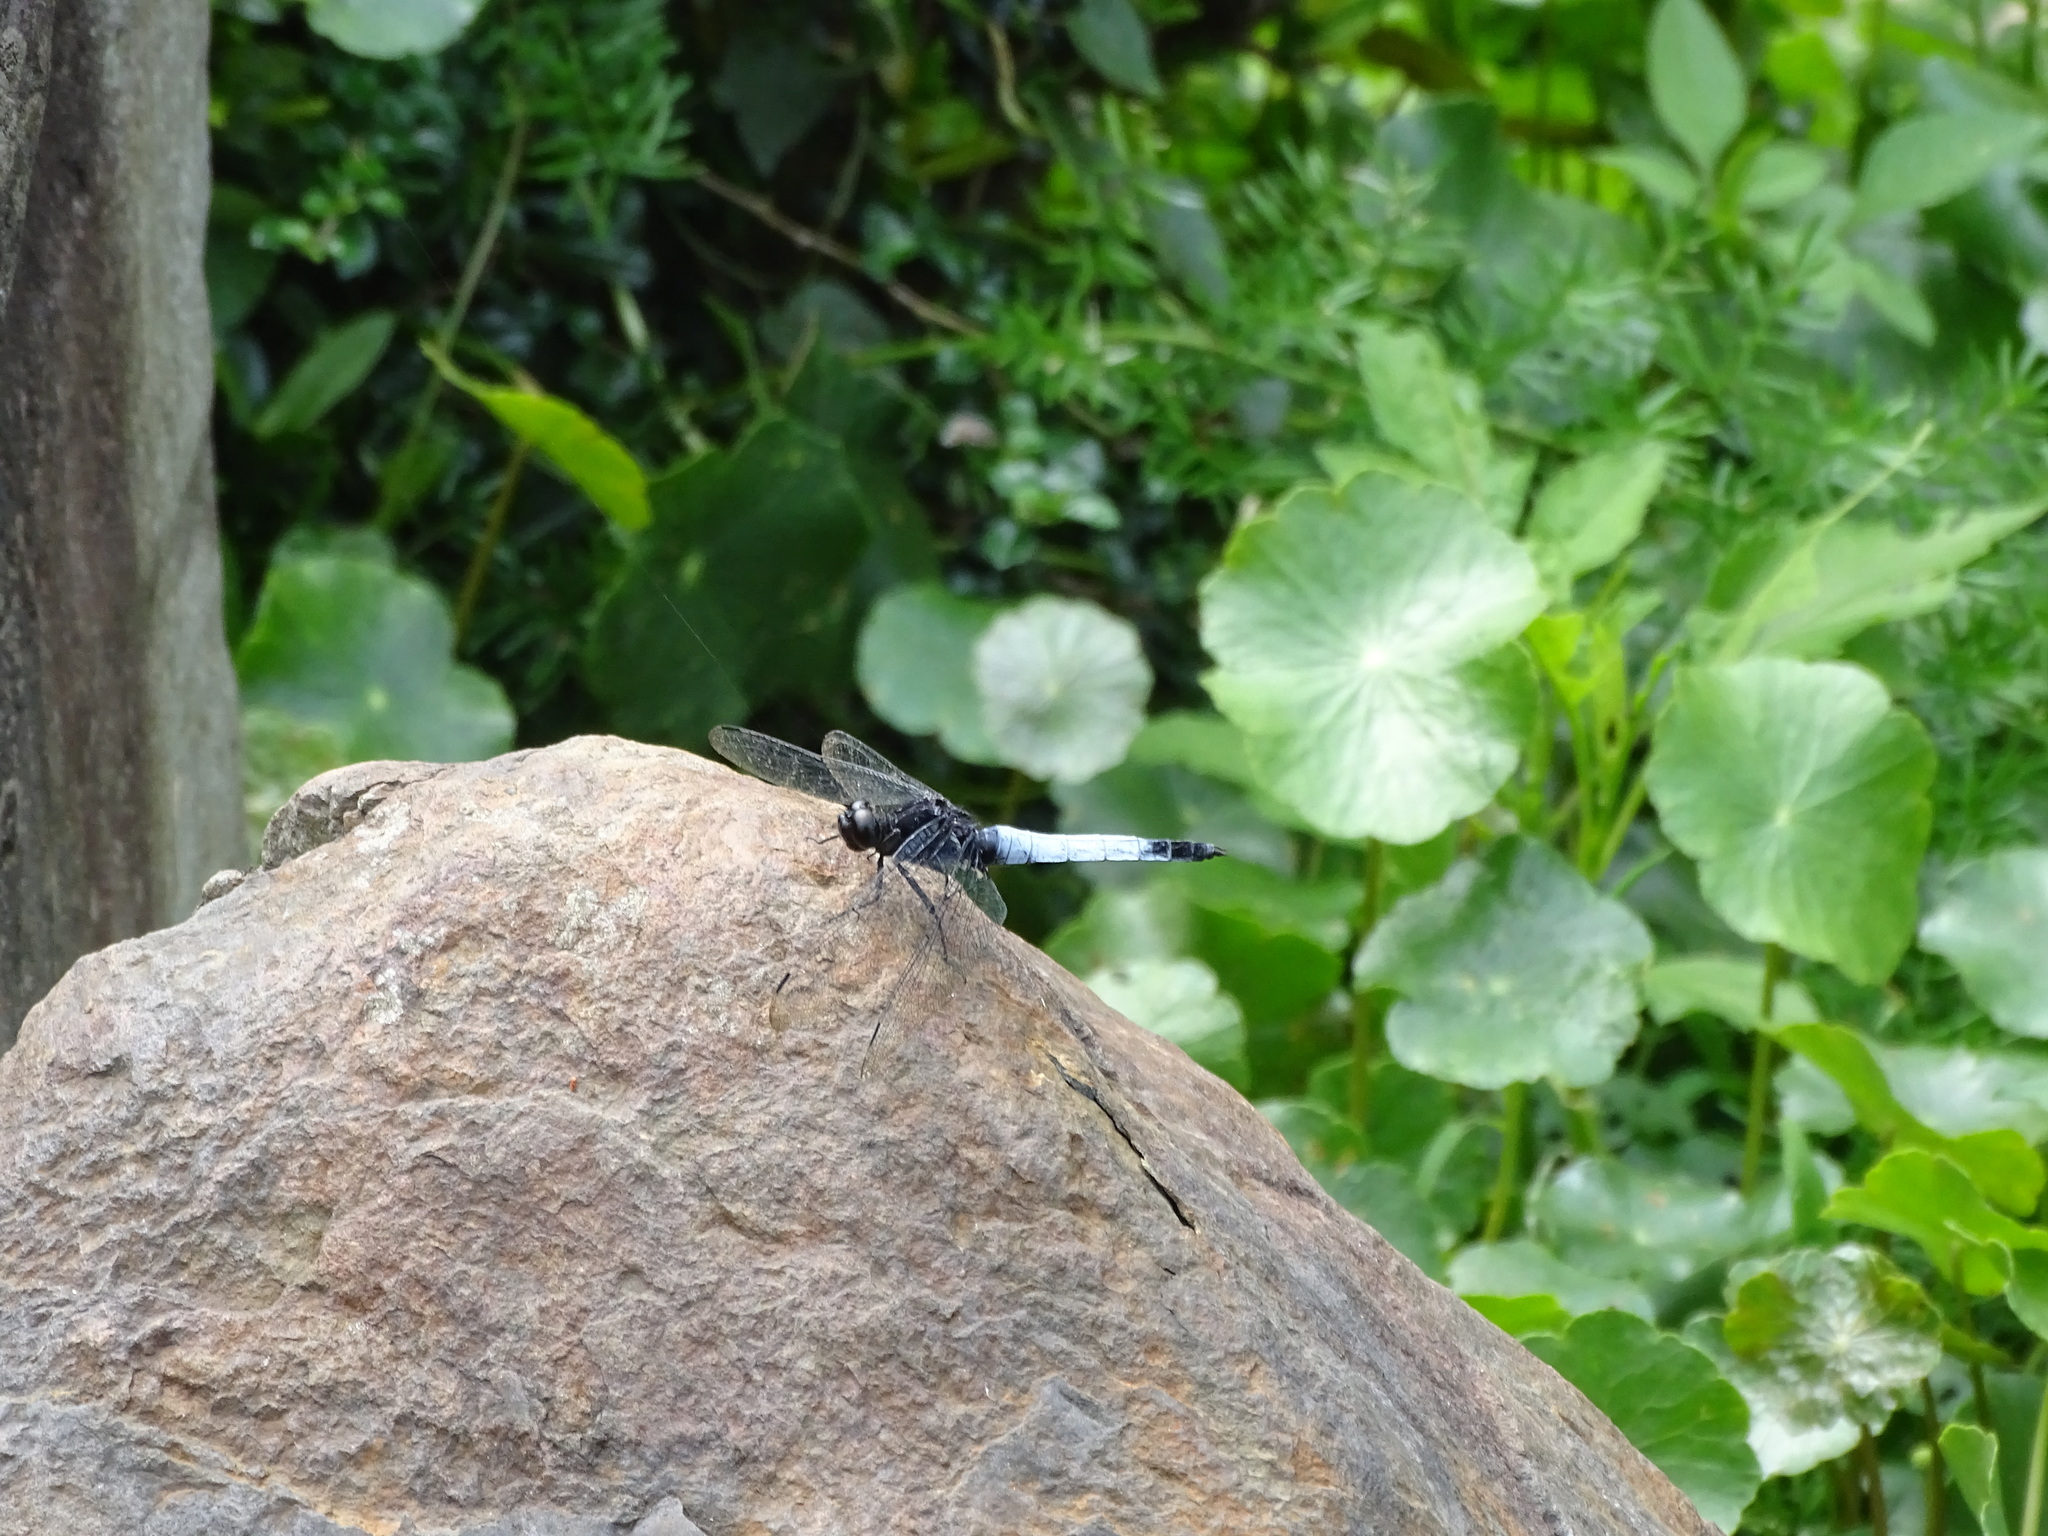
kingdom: Animalia
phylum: Arthropoda
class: Insecta
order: Odonata
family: Libellulidae
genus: Orthetrum
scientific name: Orthetrum triangulare
